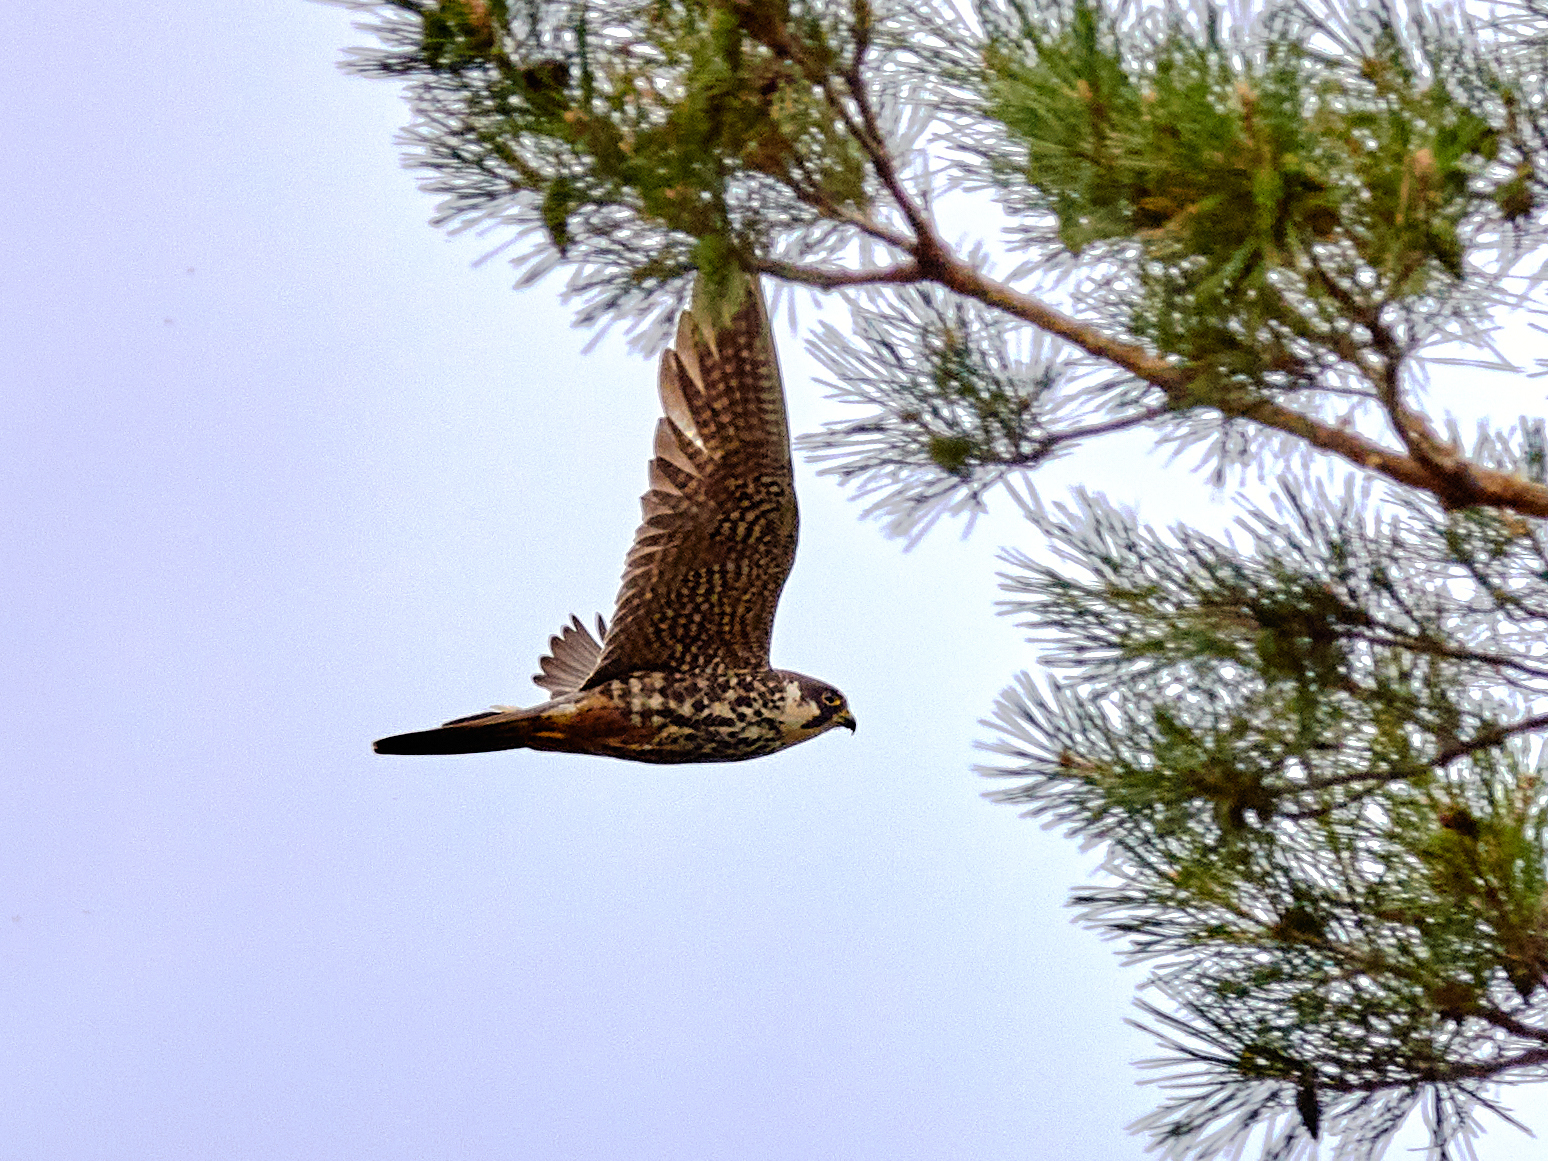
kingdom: Animalia
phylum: Chordata
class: Aves
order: Falconiformes
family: Falconidae
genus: Falco
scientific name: Falco subbuteo
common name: Eurasian hobby
